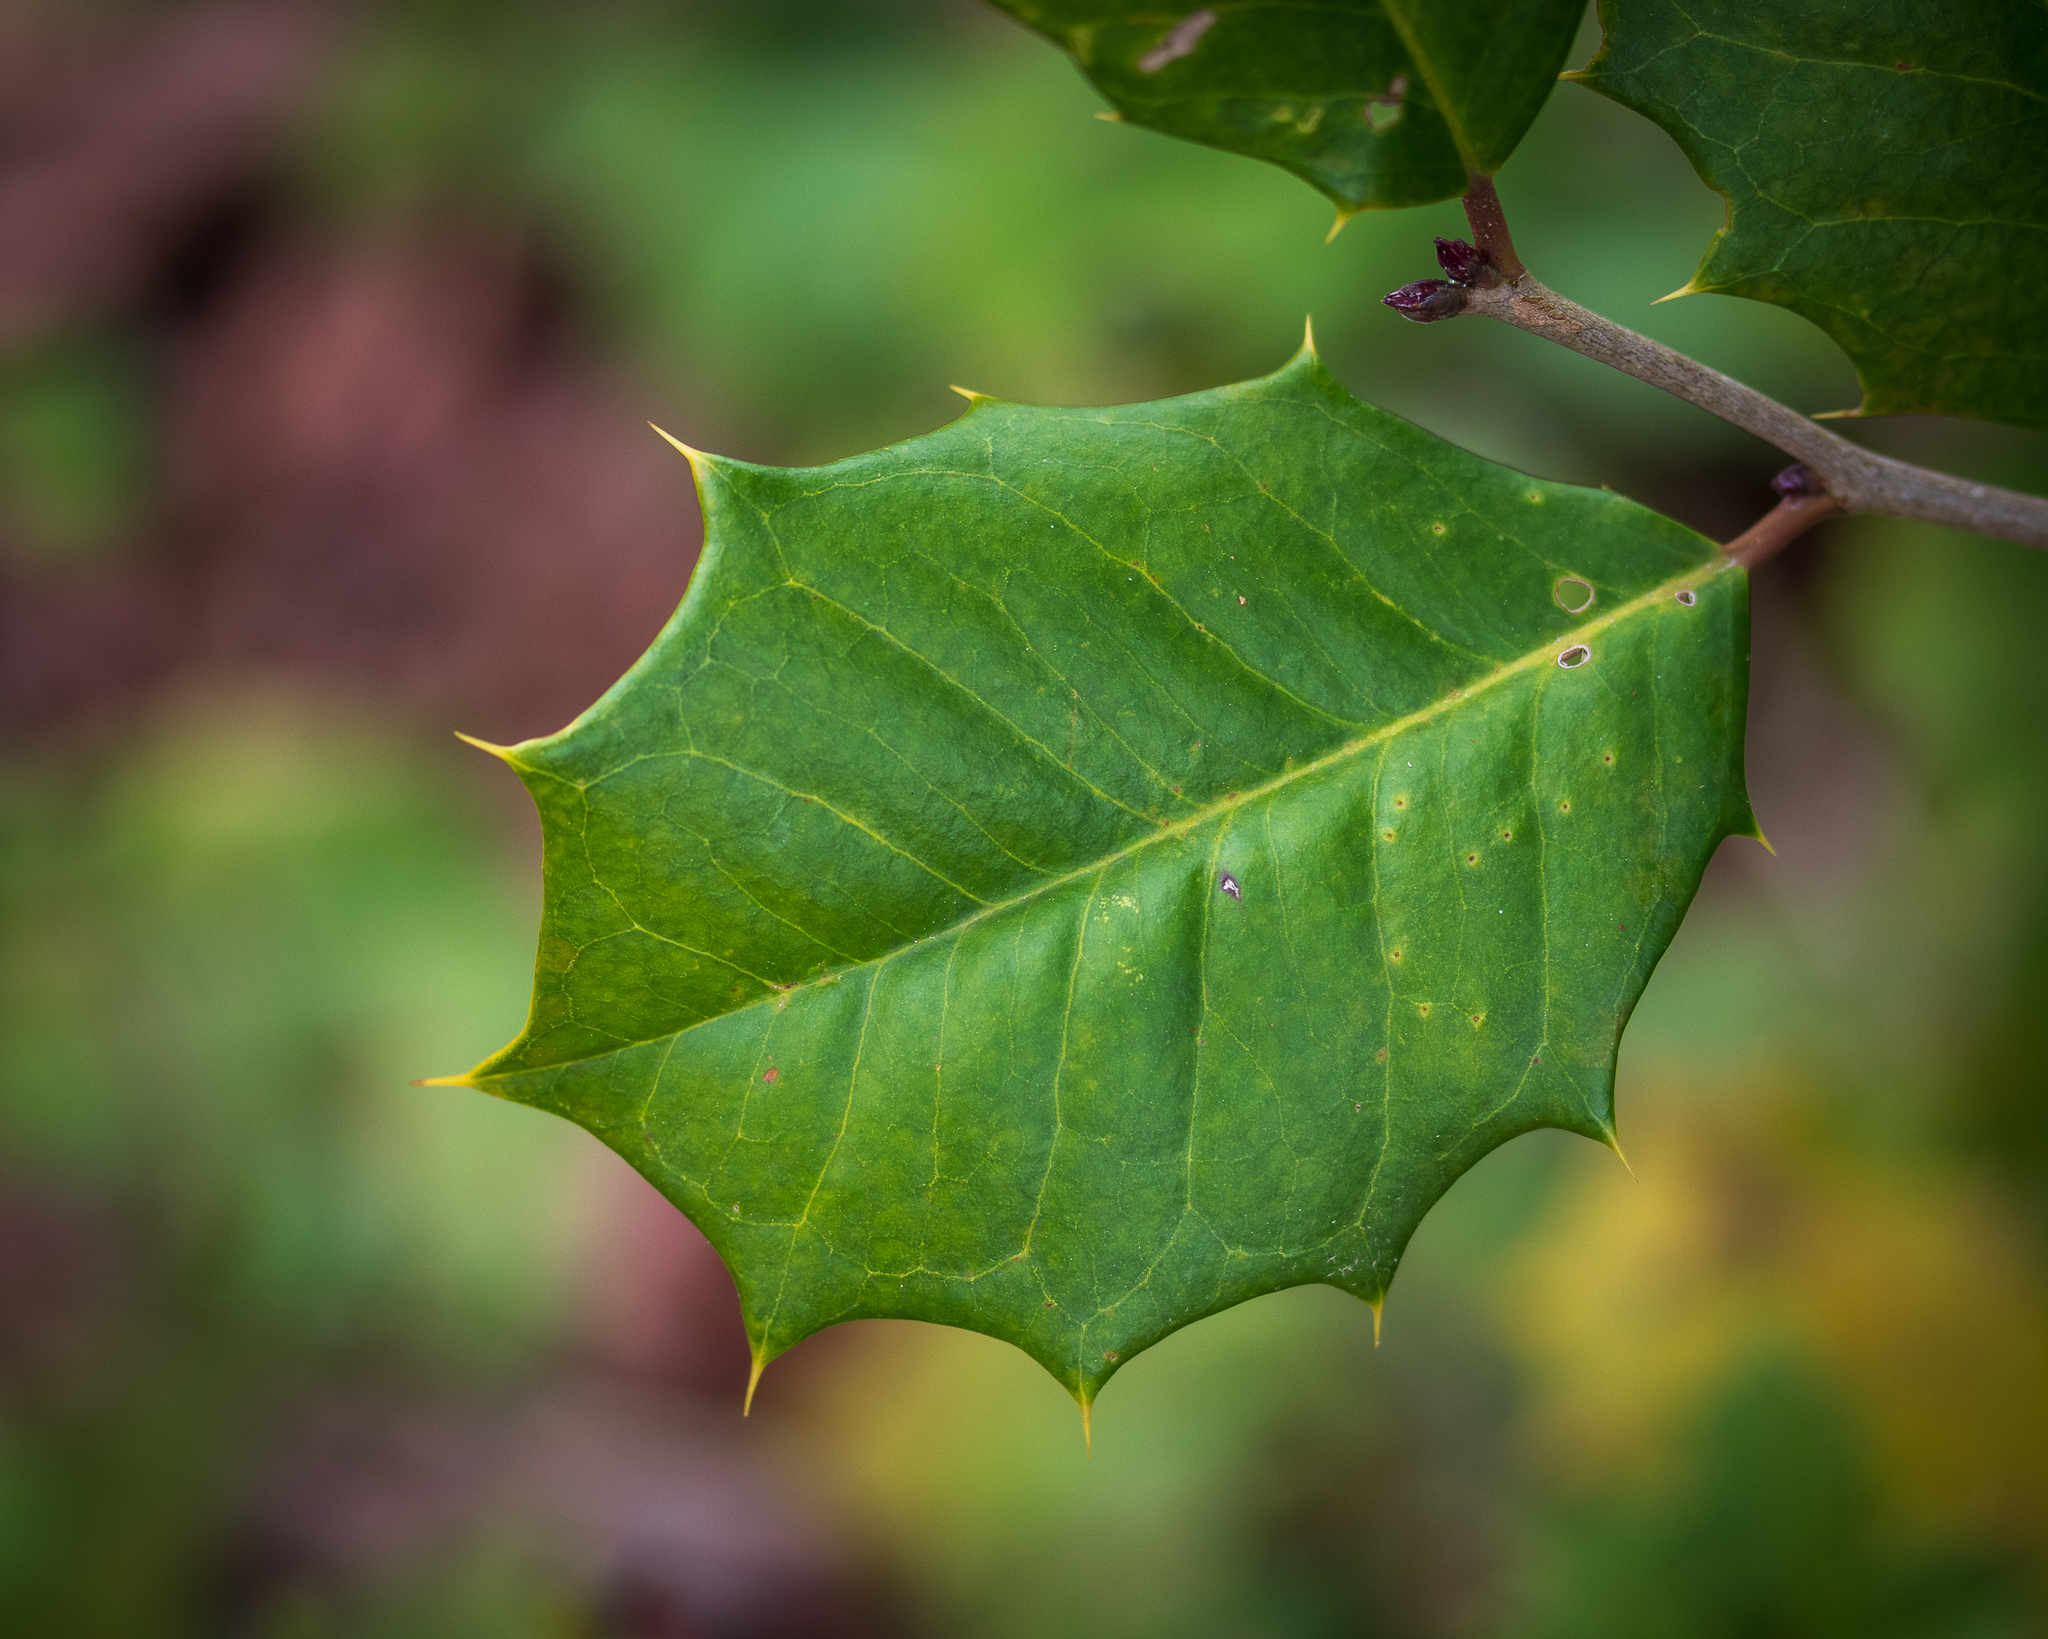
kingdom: Plantae
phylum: Tracheophyta
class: Magnoliopsida
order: Aquifoliales
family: Aquifoliaceae
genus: Ilex
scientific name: Ilex opaca
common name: American holly
